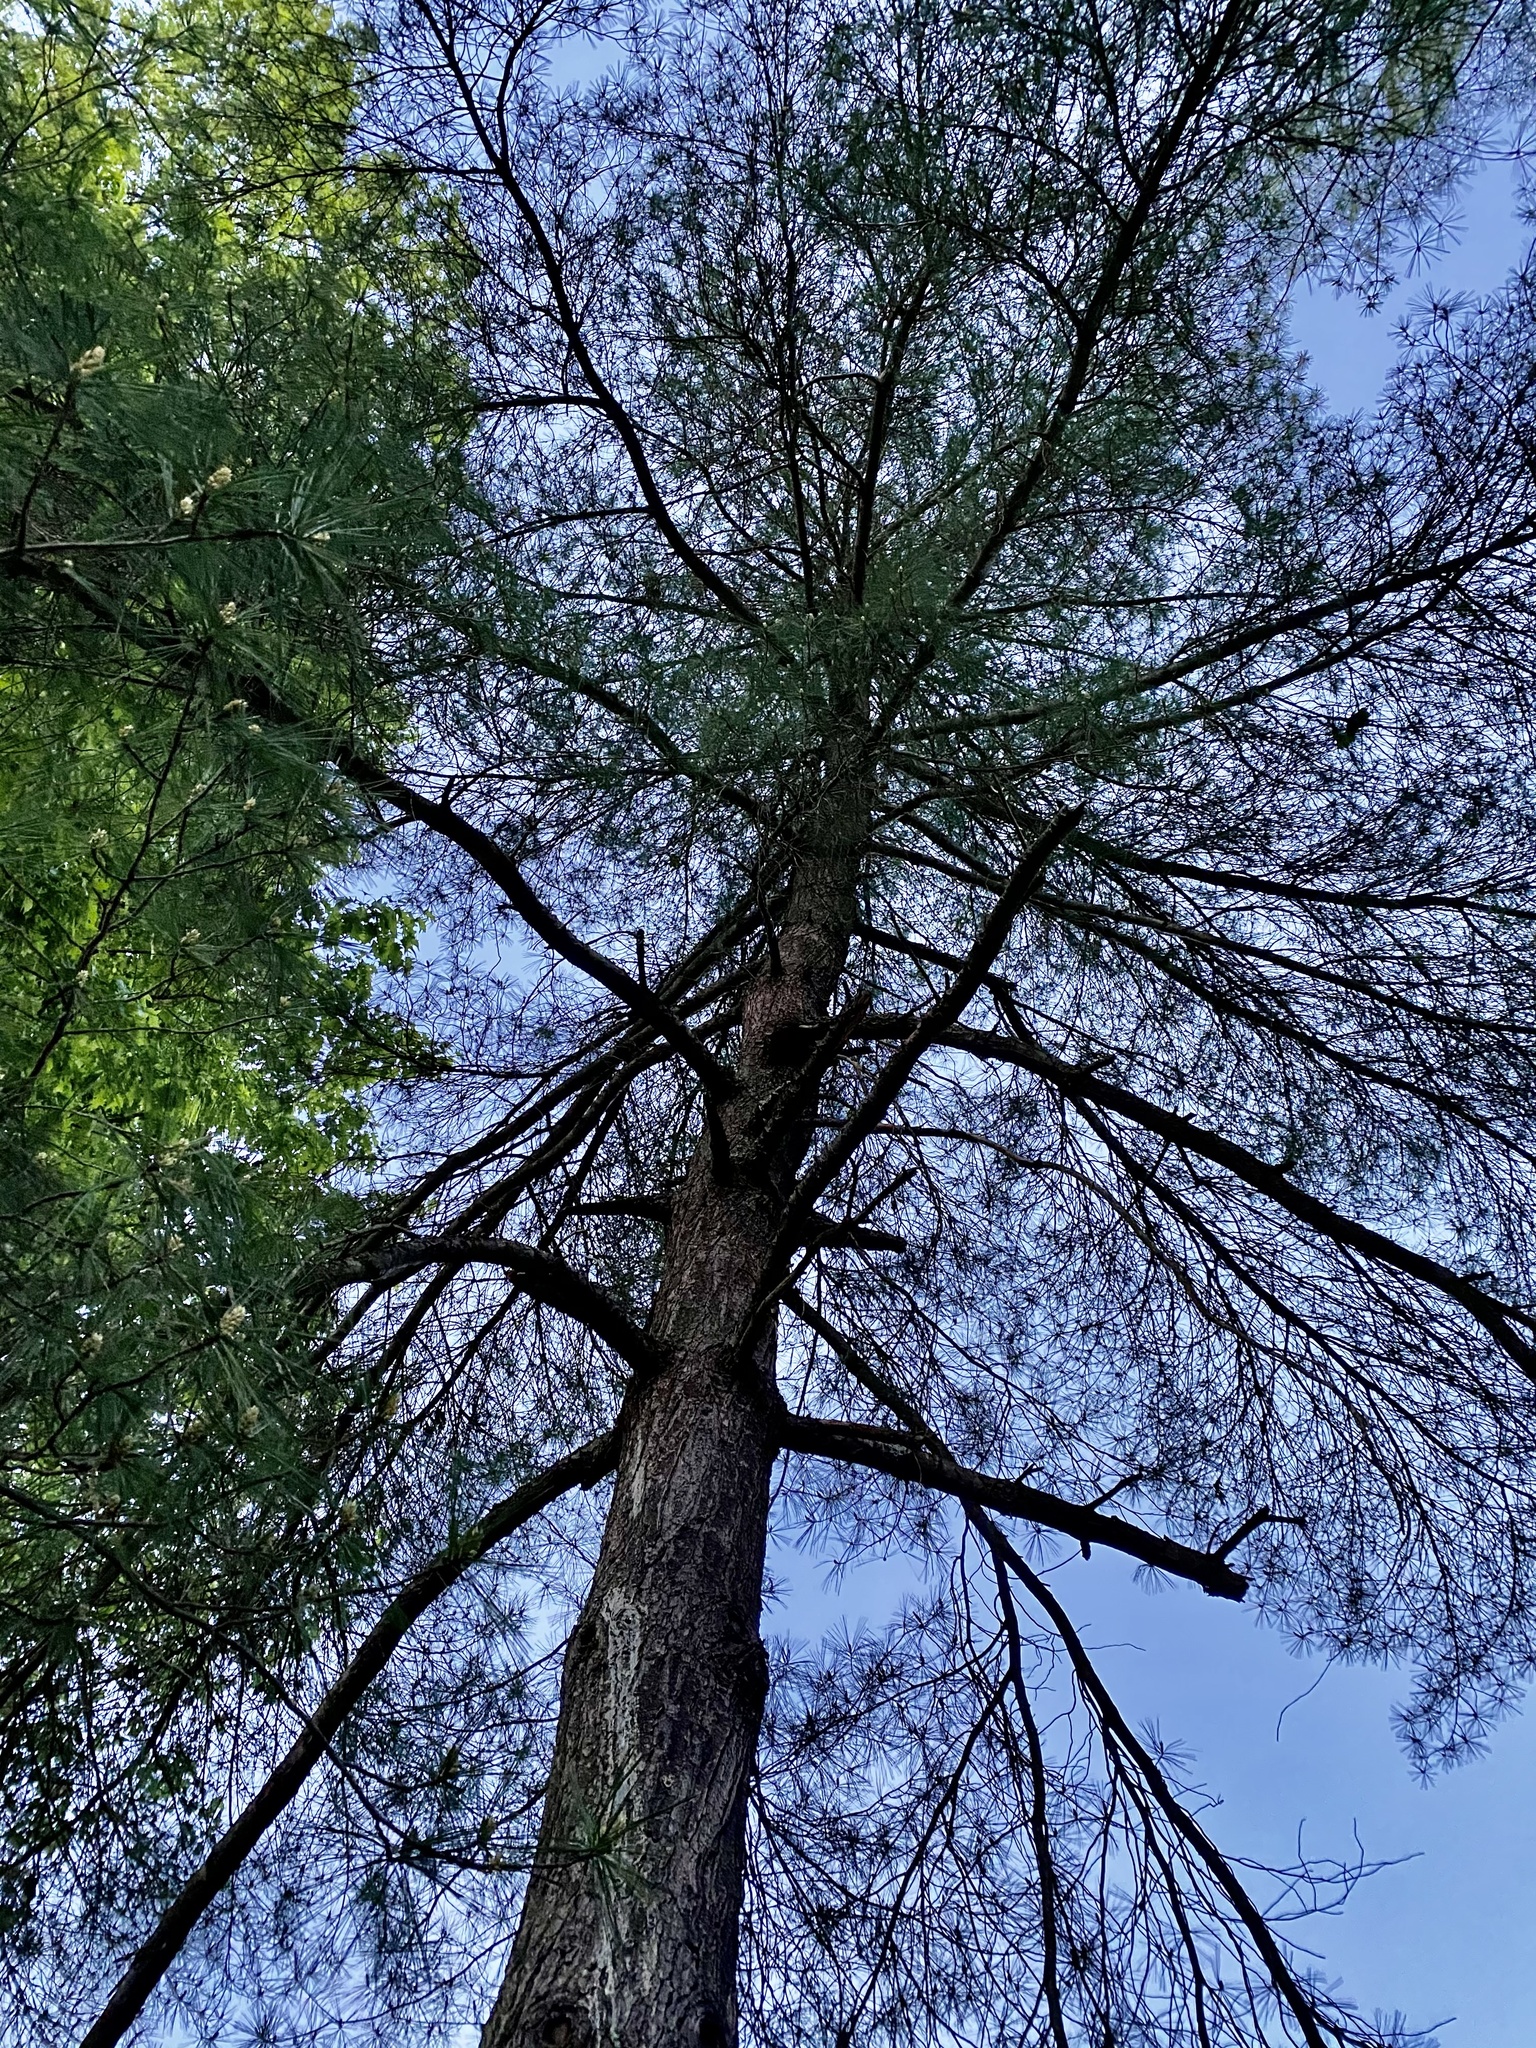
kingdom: Plantae
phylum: Tracheophyta
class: Pinopsida
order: Pinales
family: Pinaceae
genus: Pinus
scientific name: Pinus strobus
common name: Weymouth pine
